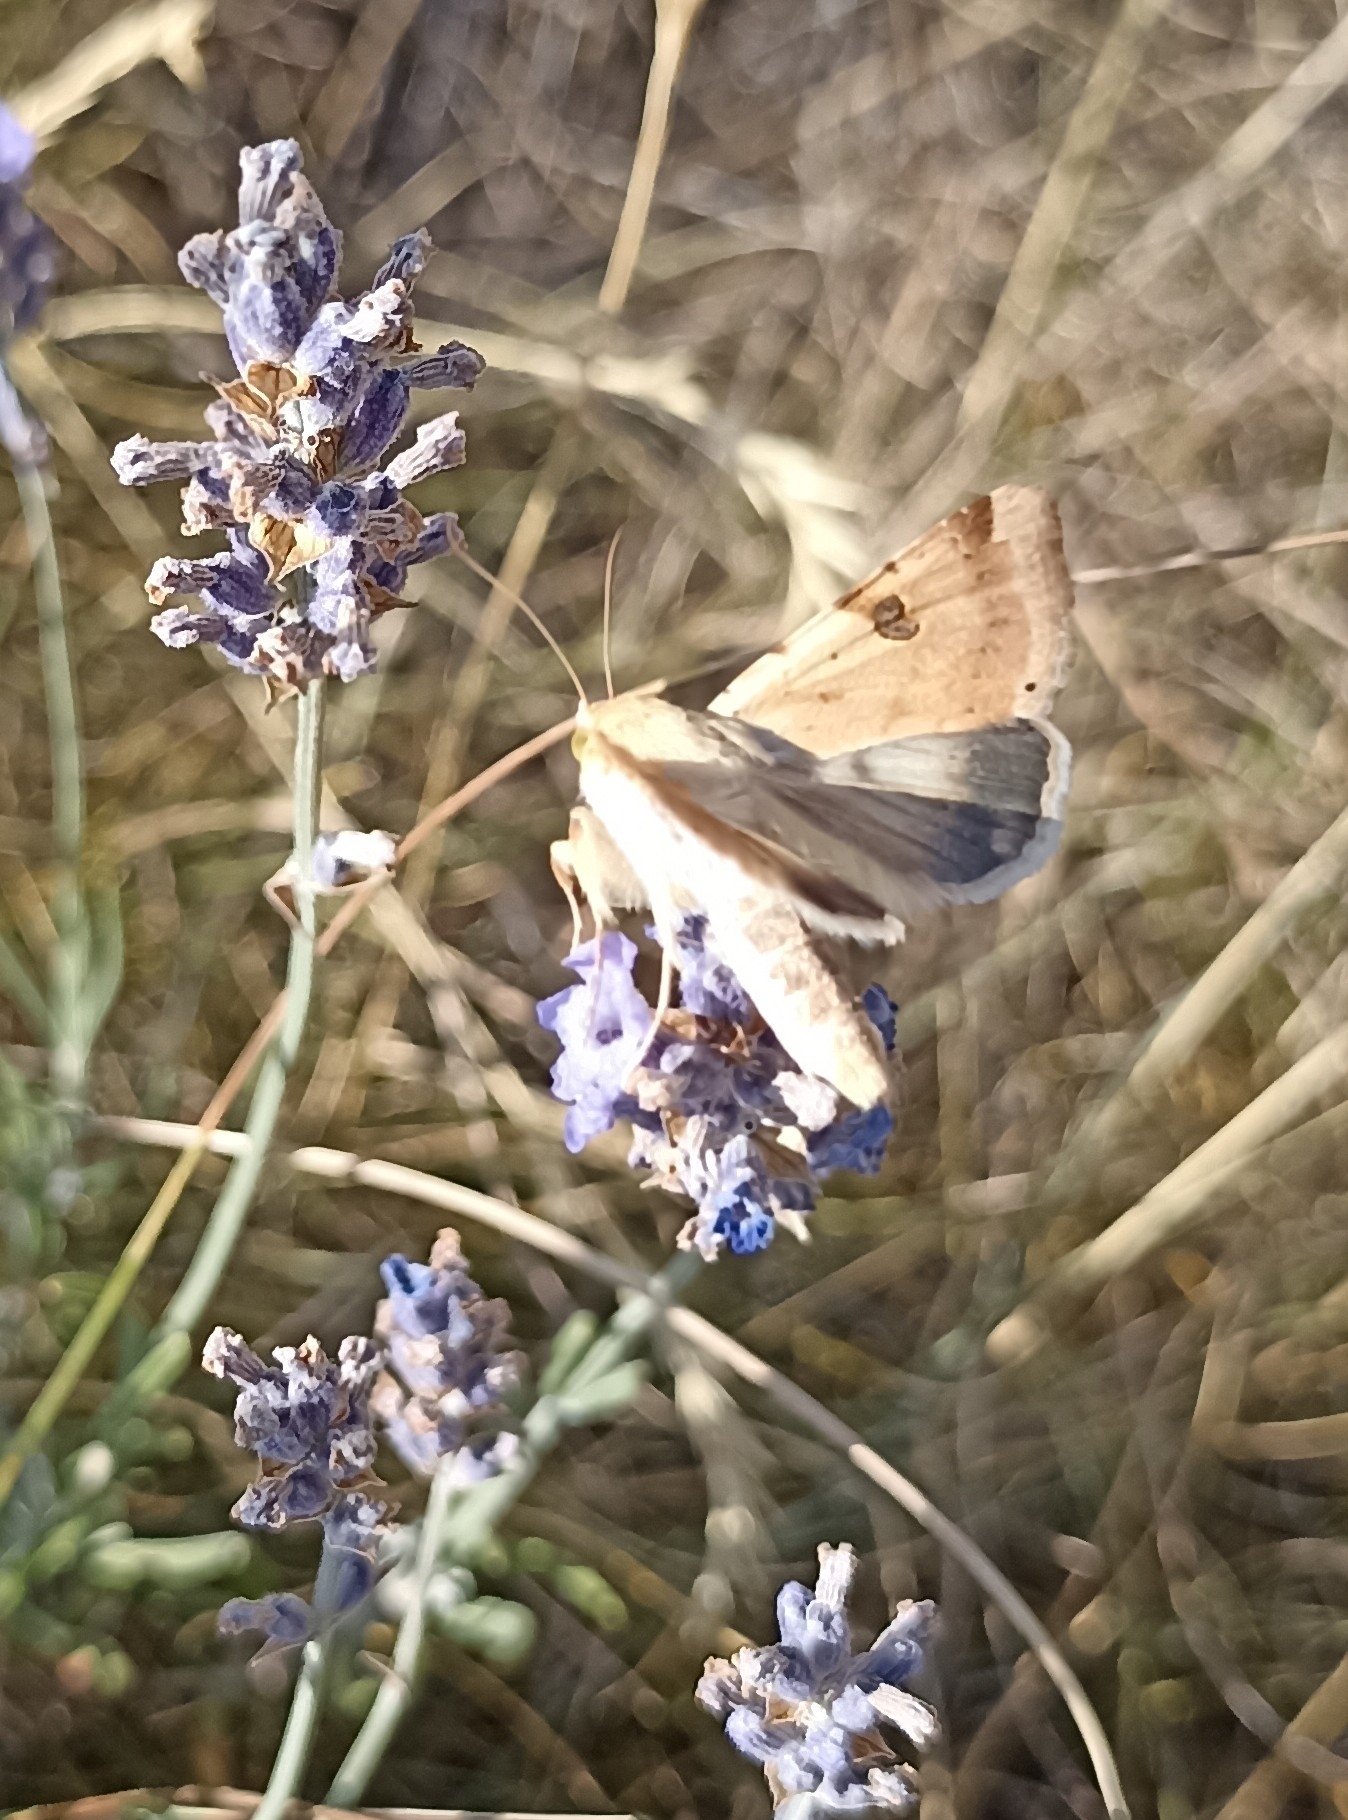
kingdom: Animalia
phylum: Arthropoda
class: Insecta
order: Lepidoptera
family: Noctuidae
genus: Heliothis
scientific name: Heliothis peltigera
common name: Bordered straw
